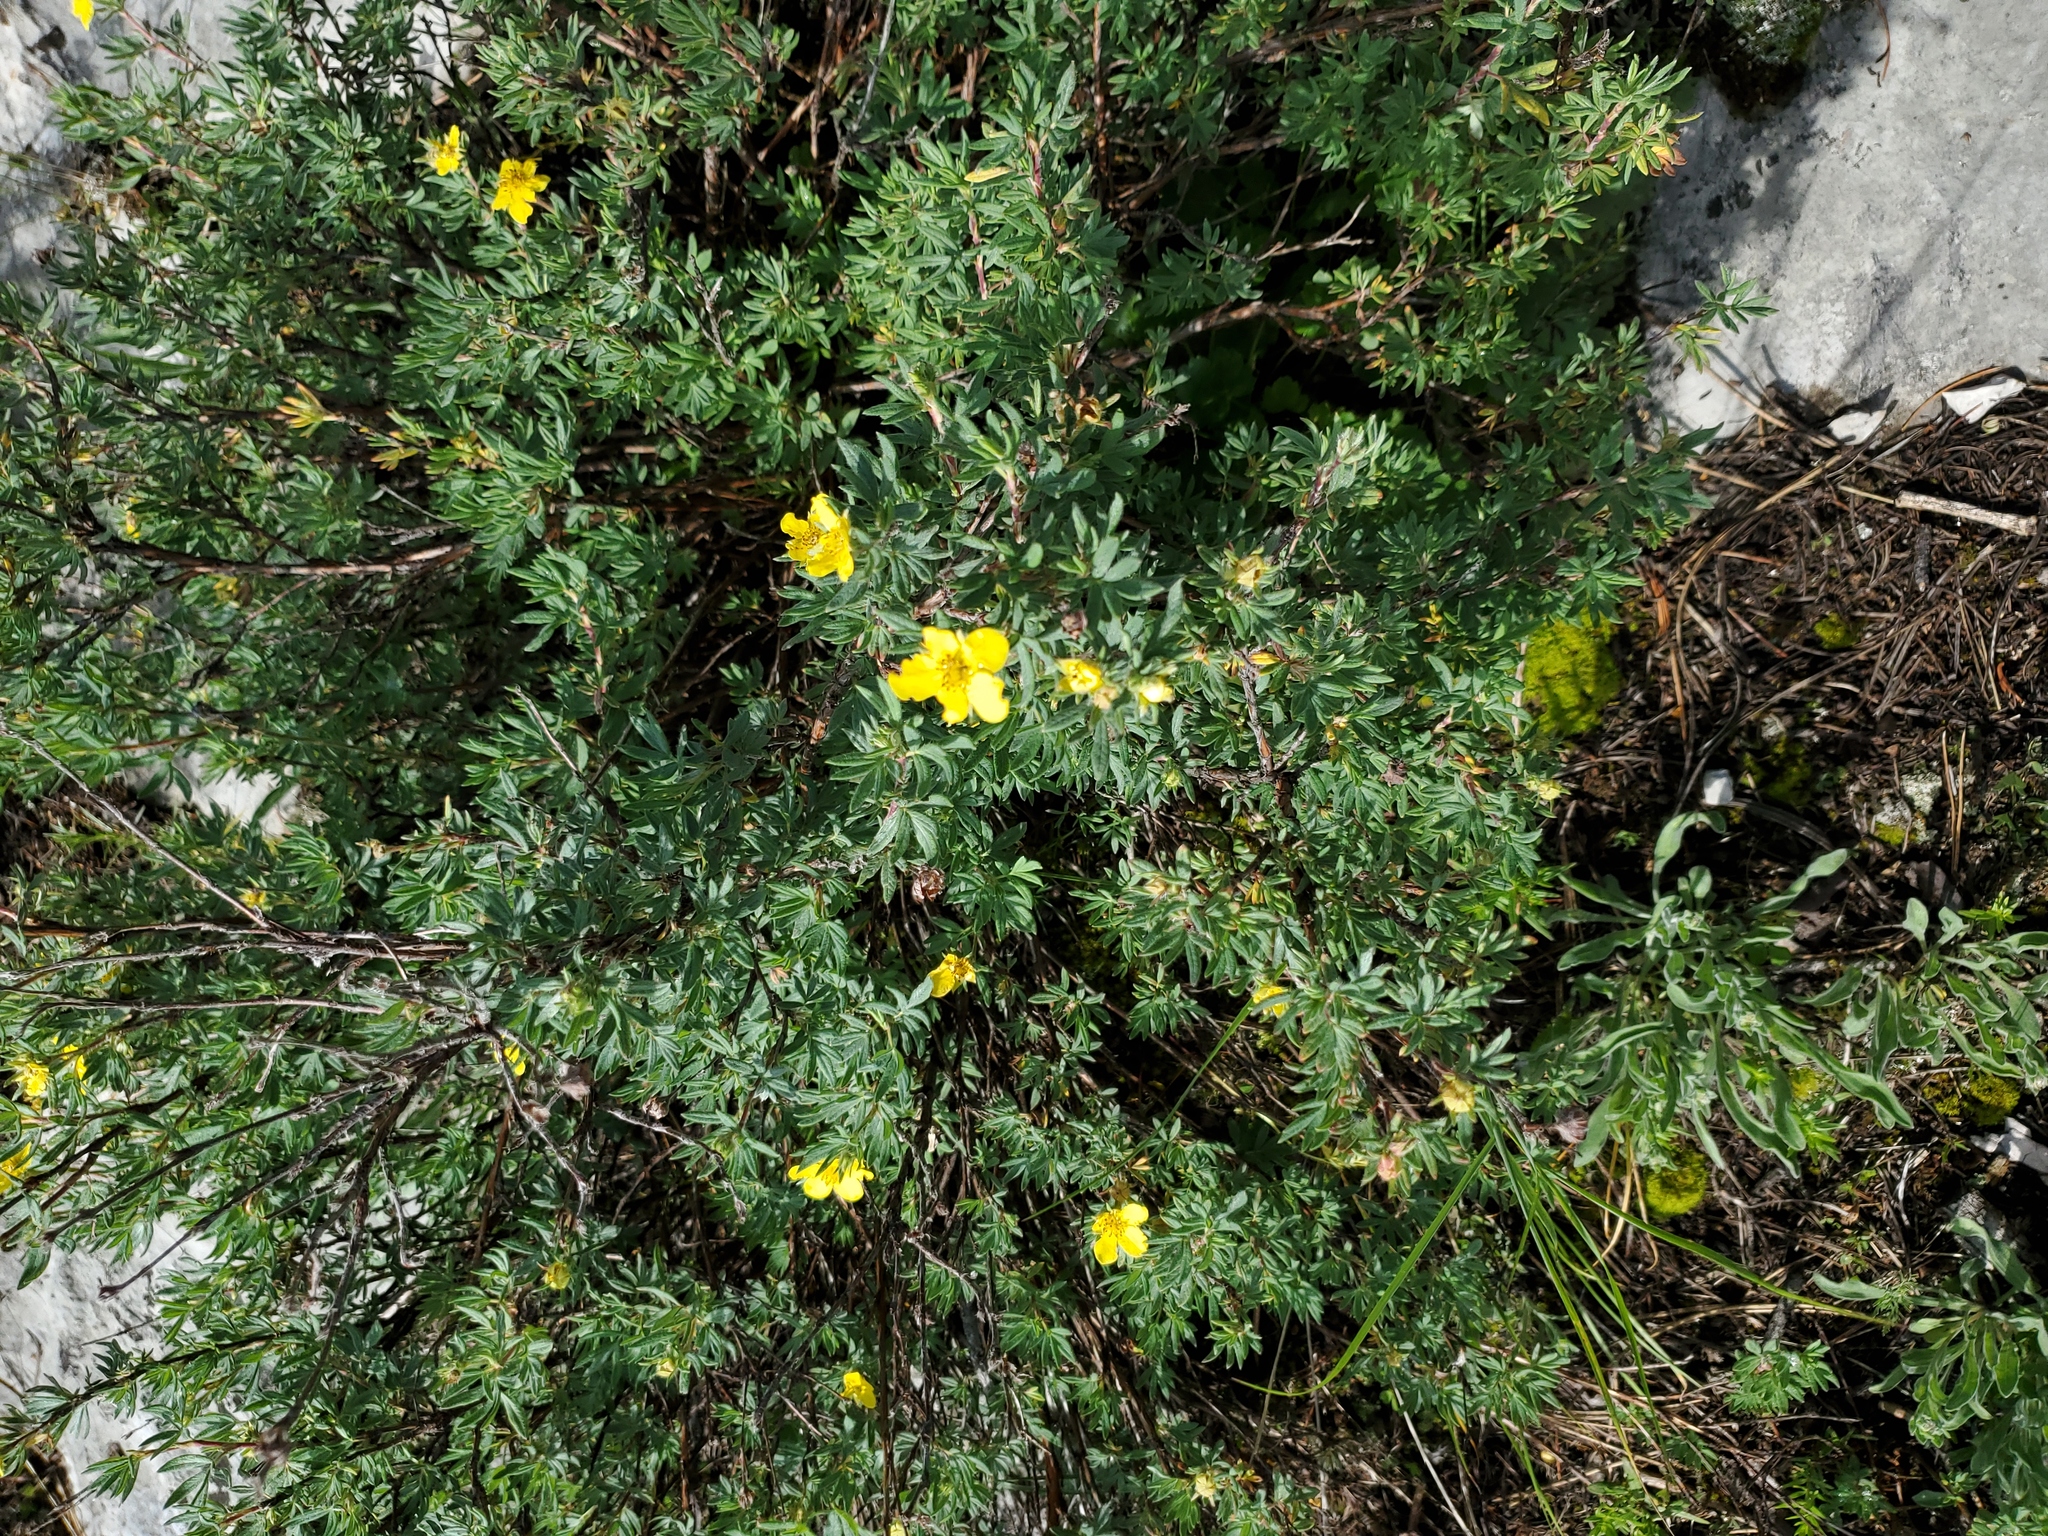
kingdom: Plantae
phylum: Tracheophyta
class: Magnoliopsida
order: Rosales
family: Rosaceae
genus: Dasiphora
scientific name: Dasiphora fruticosa
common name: Shrubby cinquefoil
